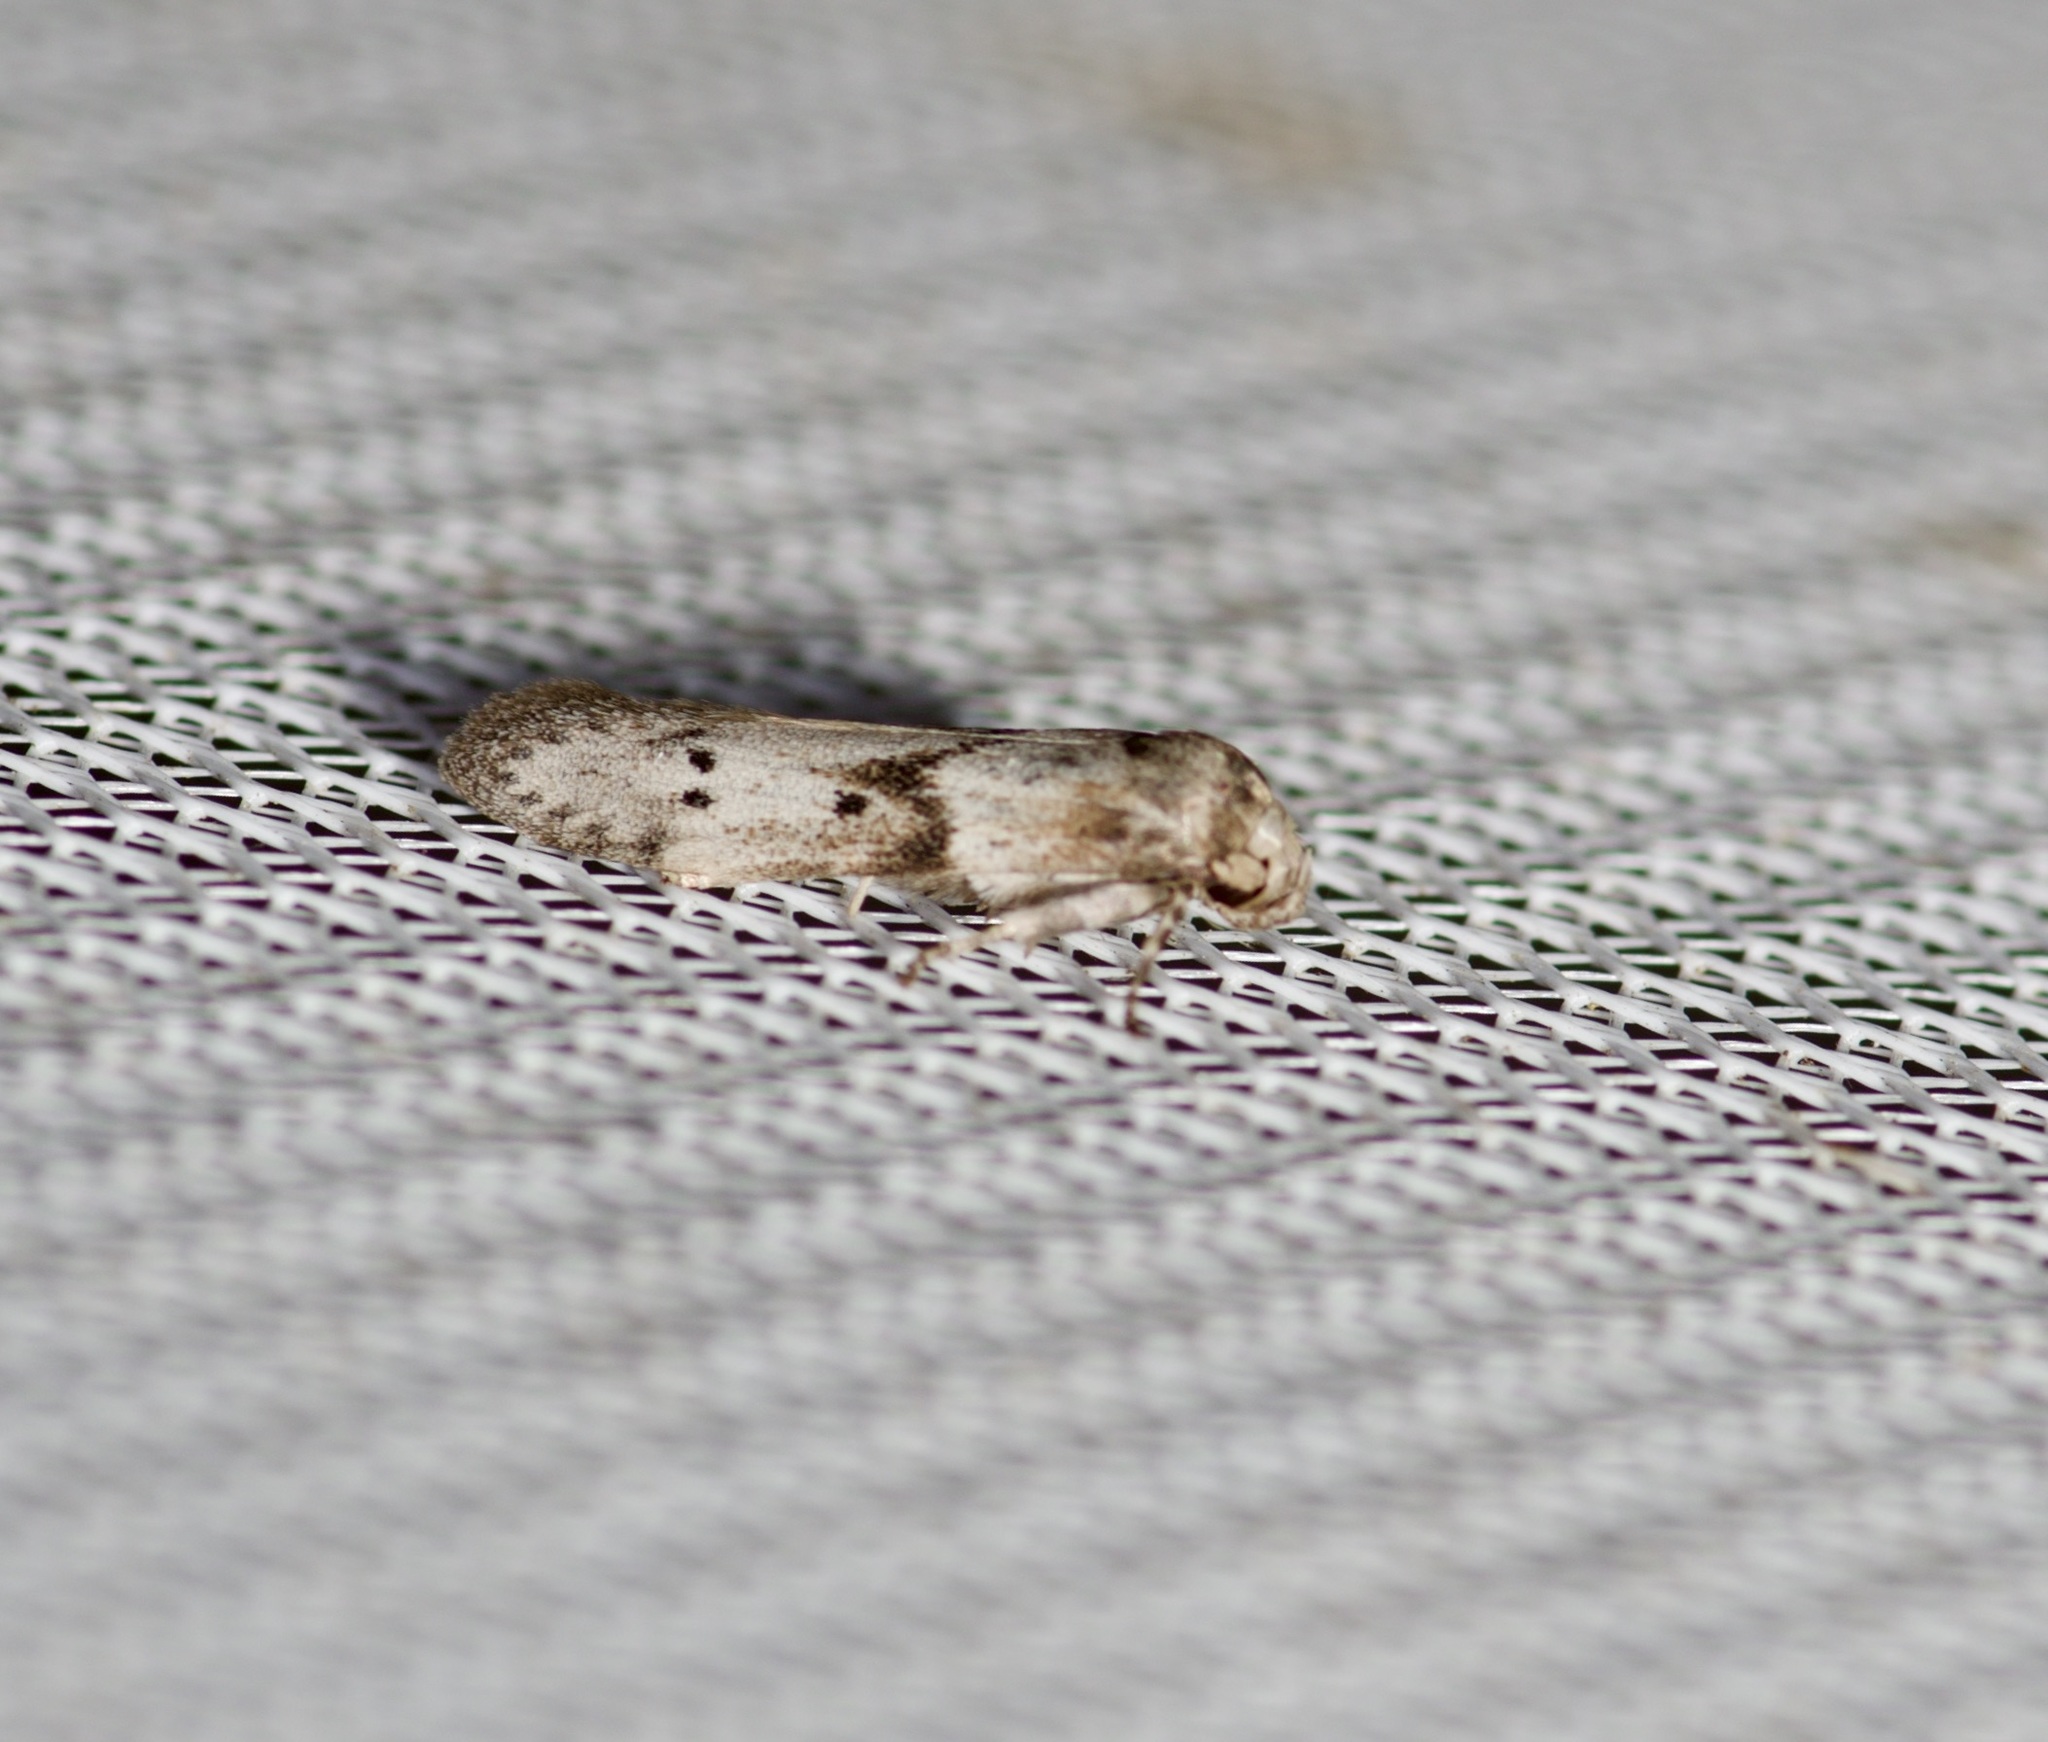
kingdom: Animalia
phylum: Arthropoda
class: Insecta
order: Lepidoptera
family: Blastobasidae
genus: Blastobasis
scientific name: Blastobasis glandulella
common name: Acorn moth
